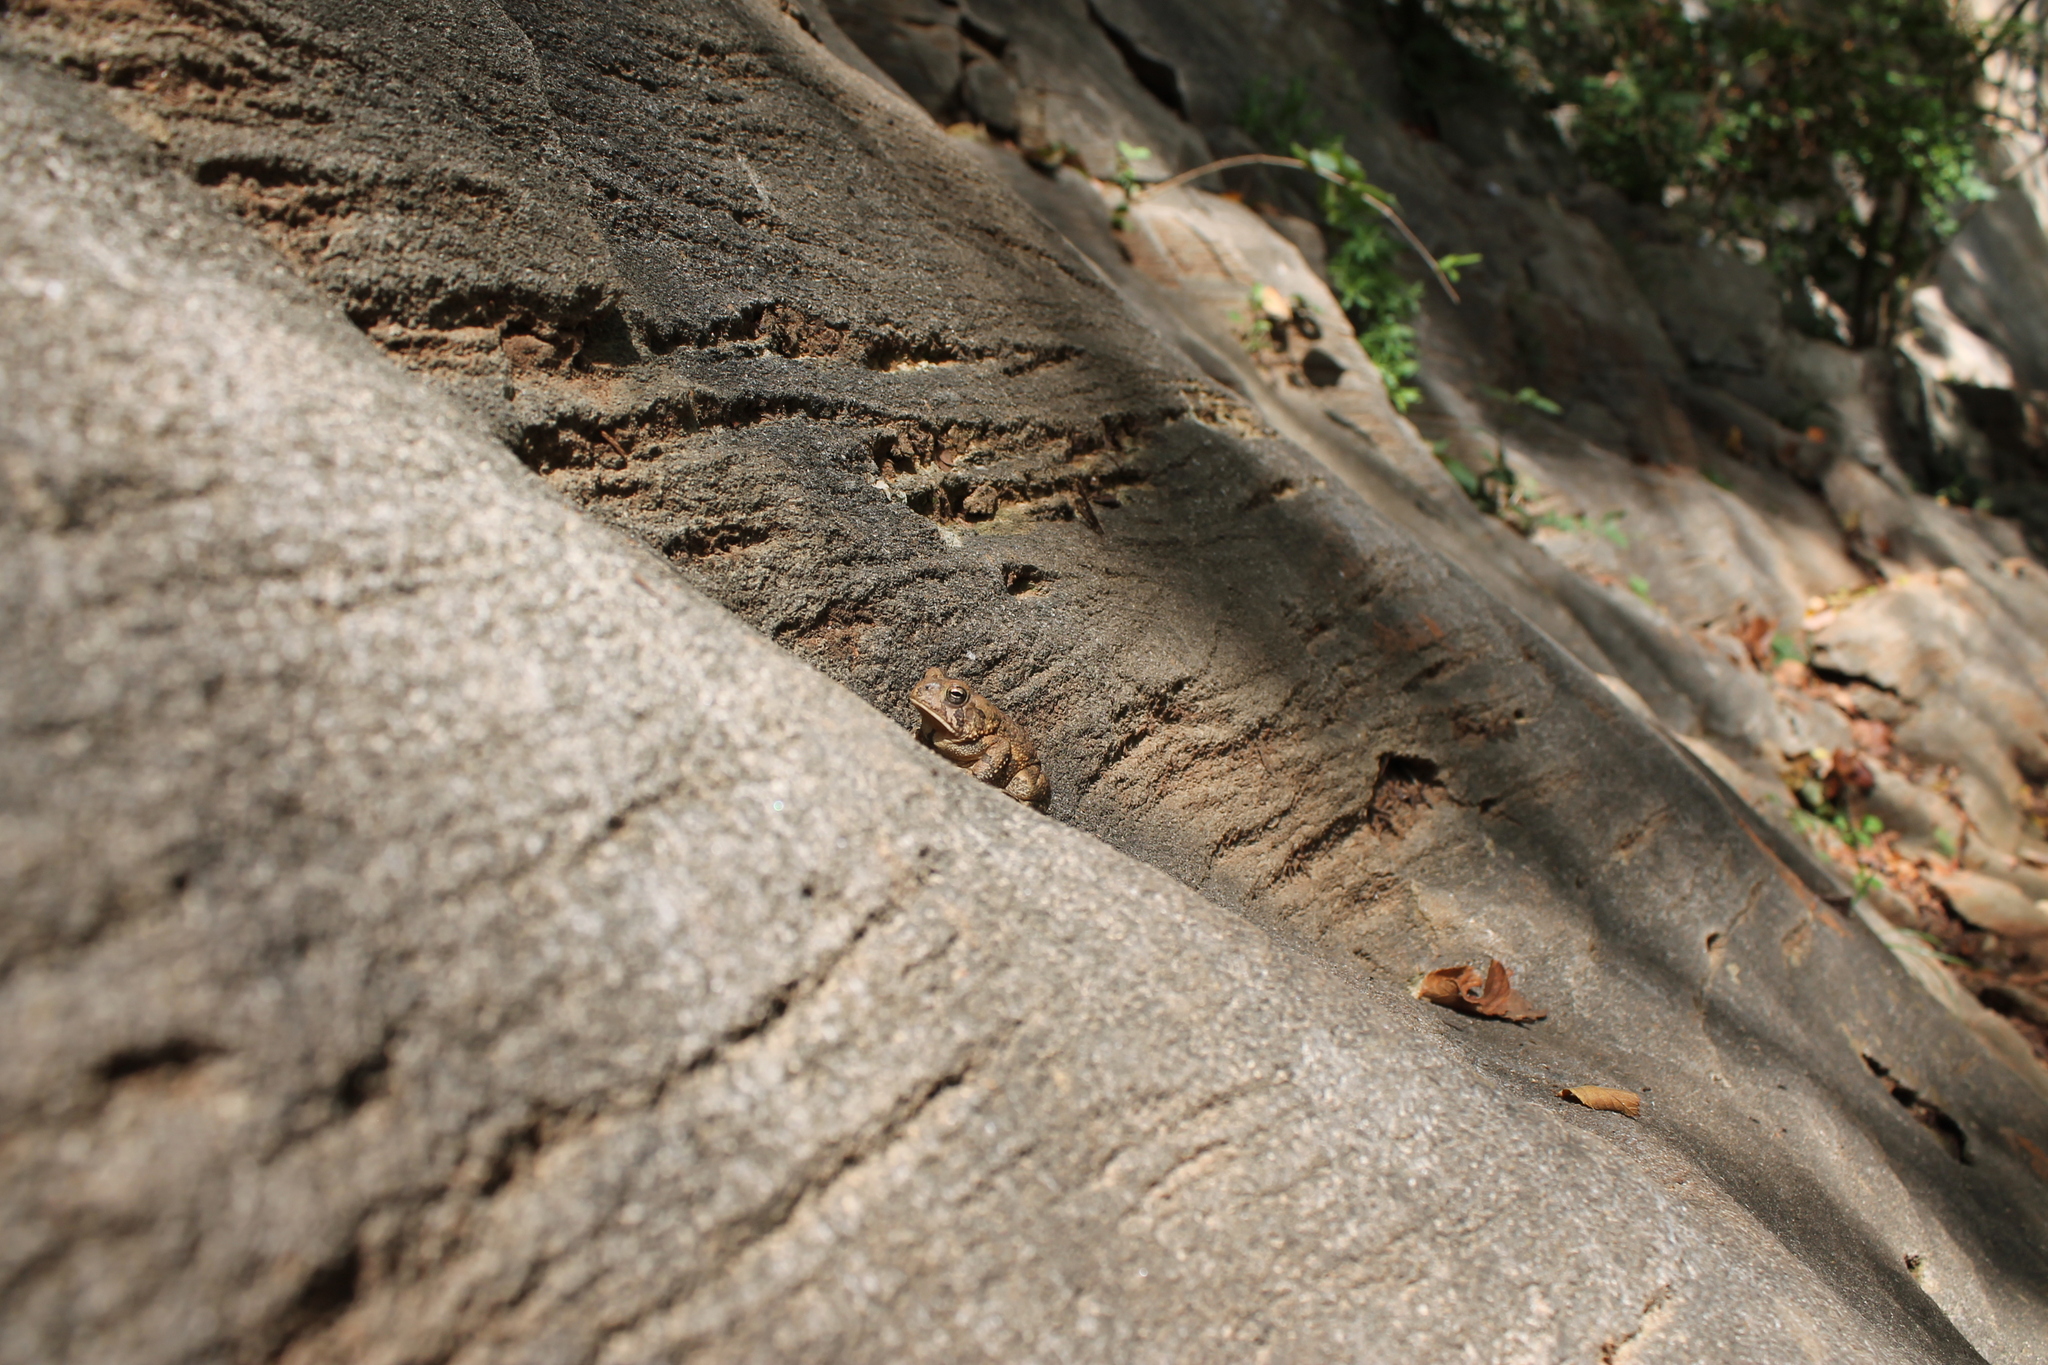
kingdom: Animalia
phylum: Chordata
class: Amphibia
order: Anura
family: Bufonidae
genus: Anaxyrus
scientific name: Anaxyrus fowleri
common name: Fowler's toad
